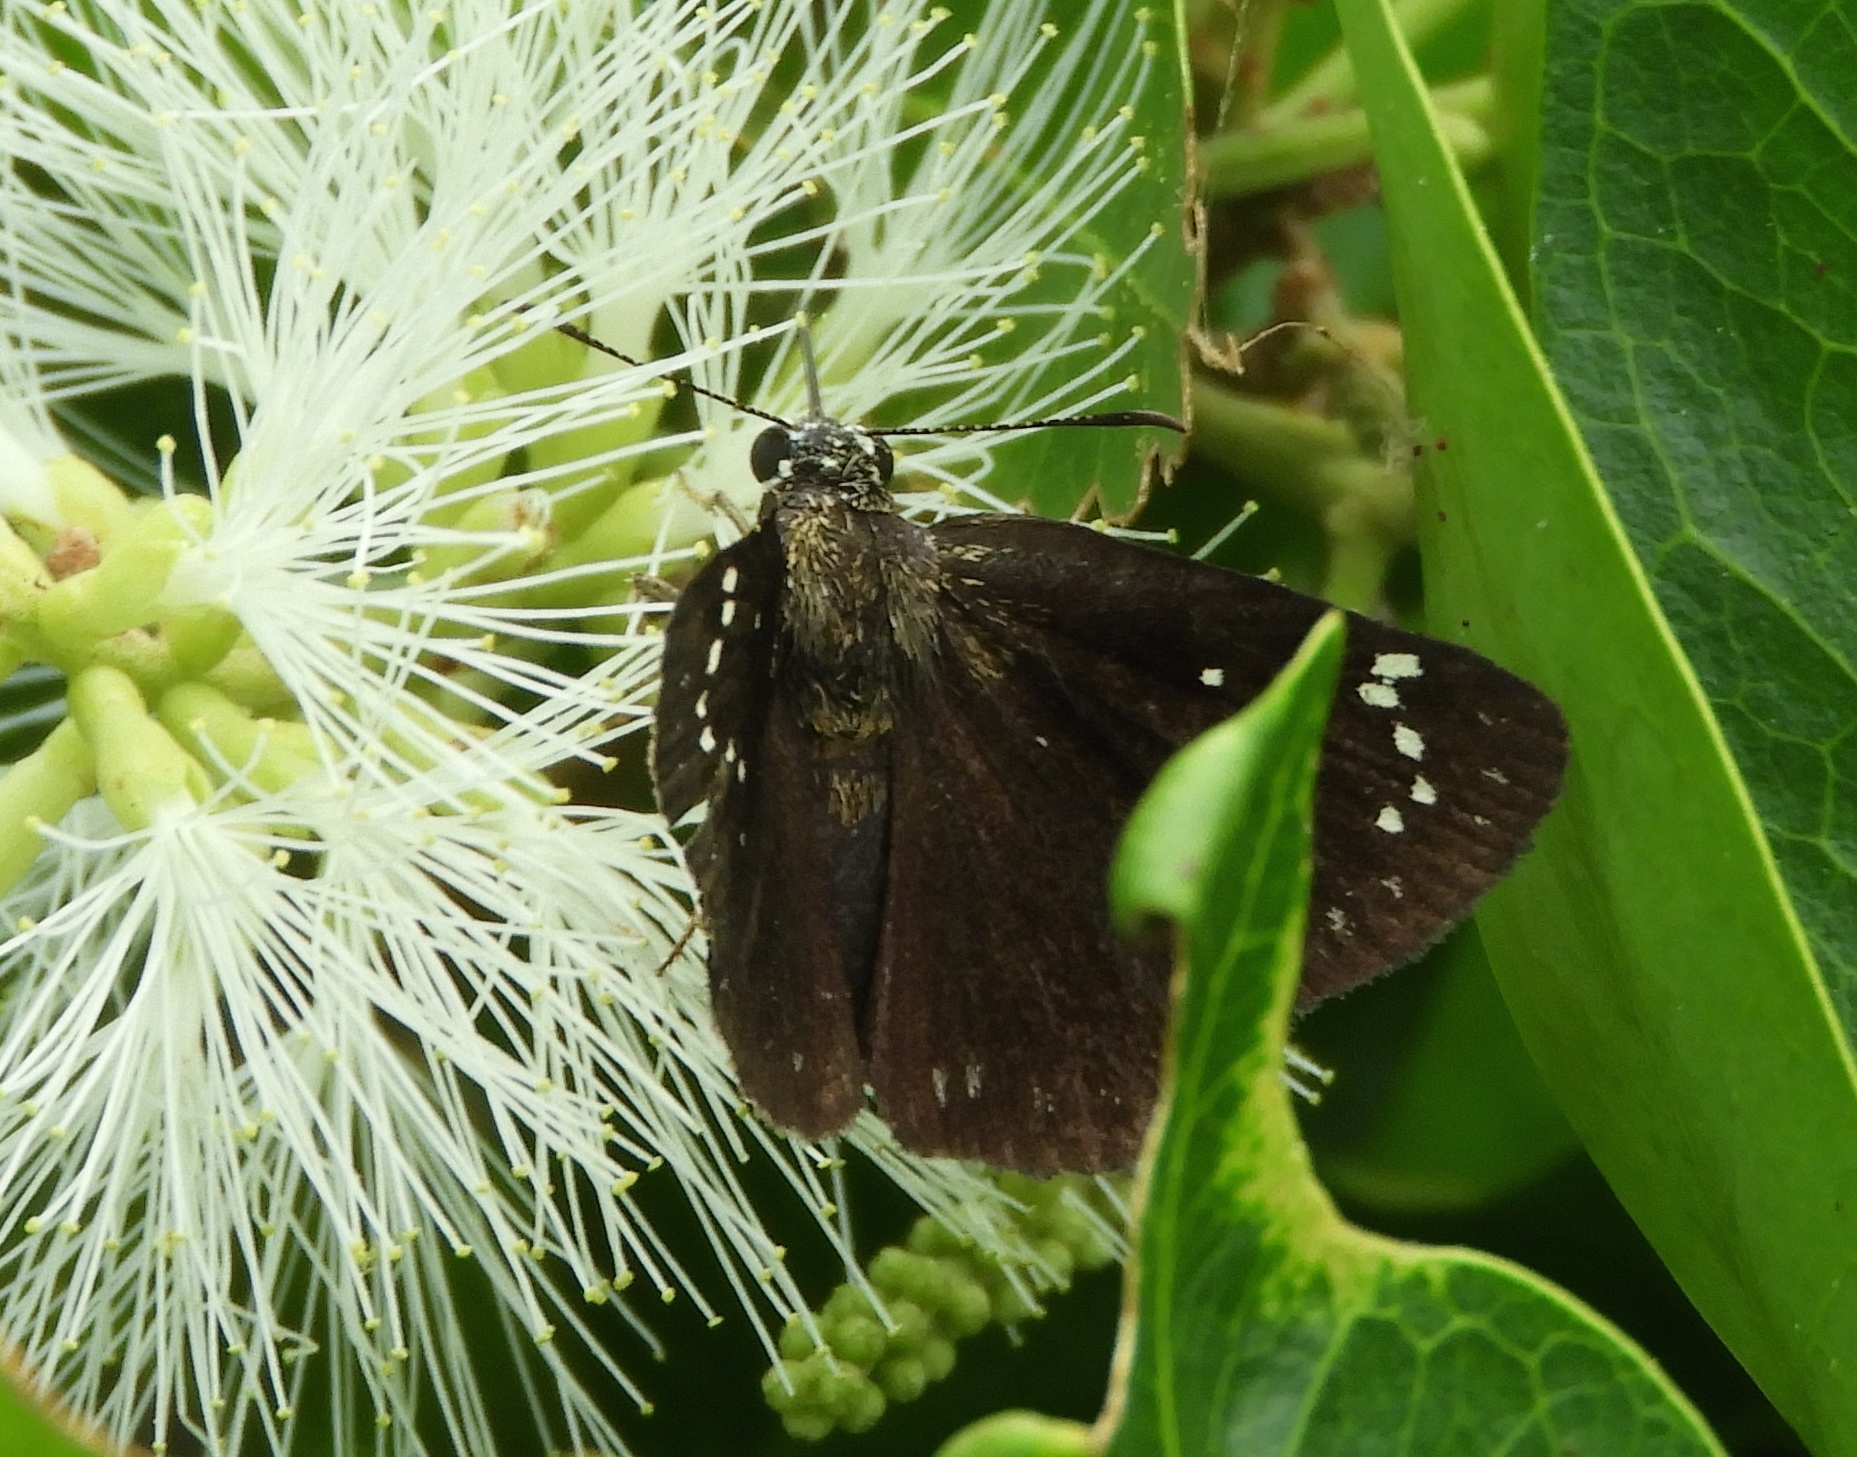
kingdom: Animalia
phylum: Arthropoda
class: Insecta
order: Lepidoptera
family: Hesperiidae
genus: Pholisora
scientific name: Pholisora
